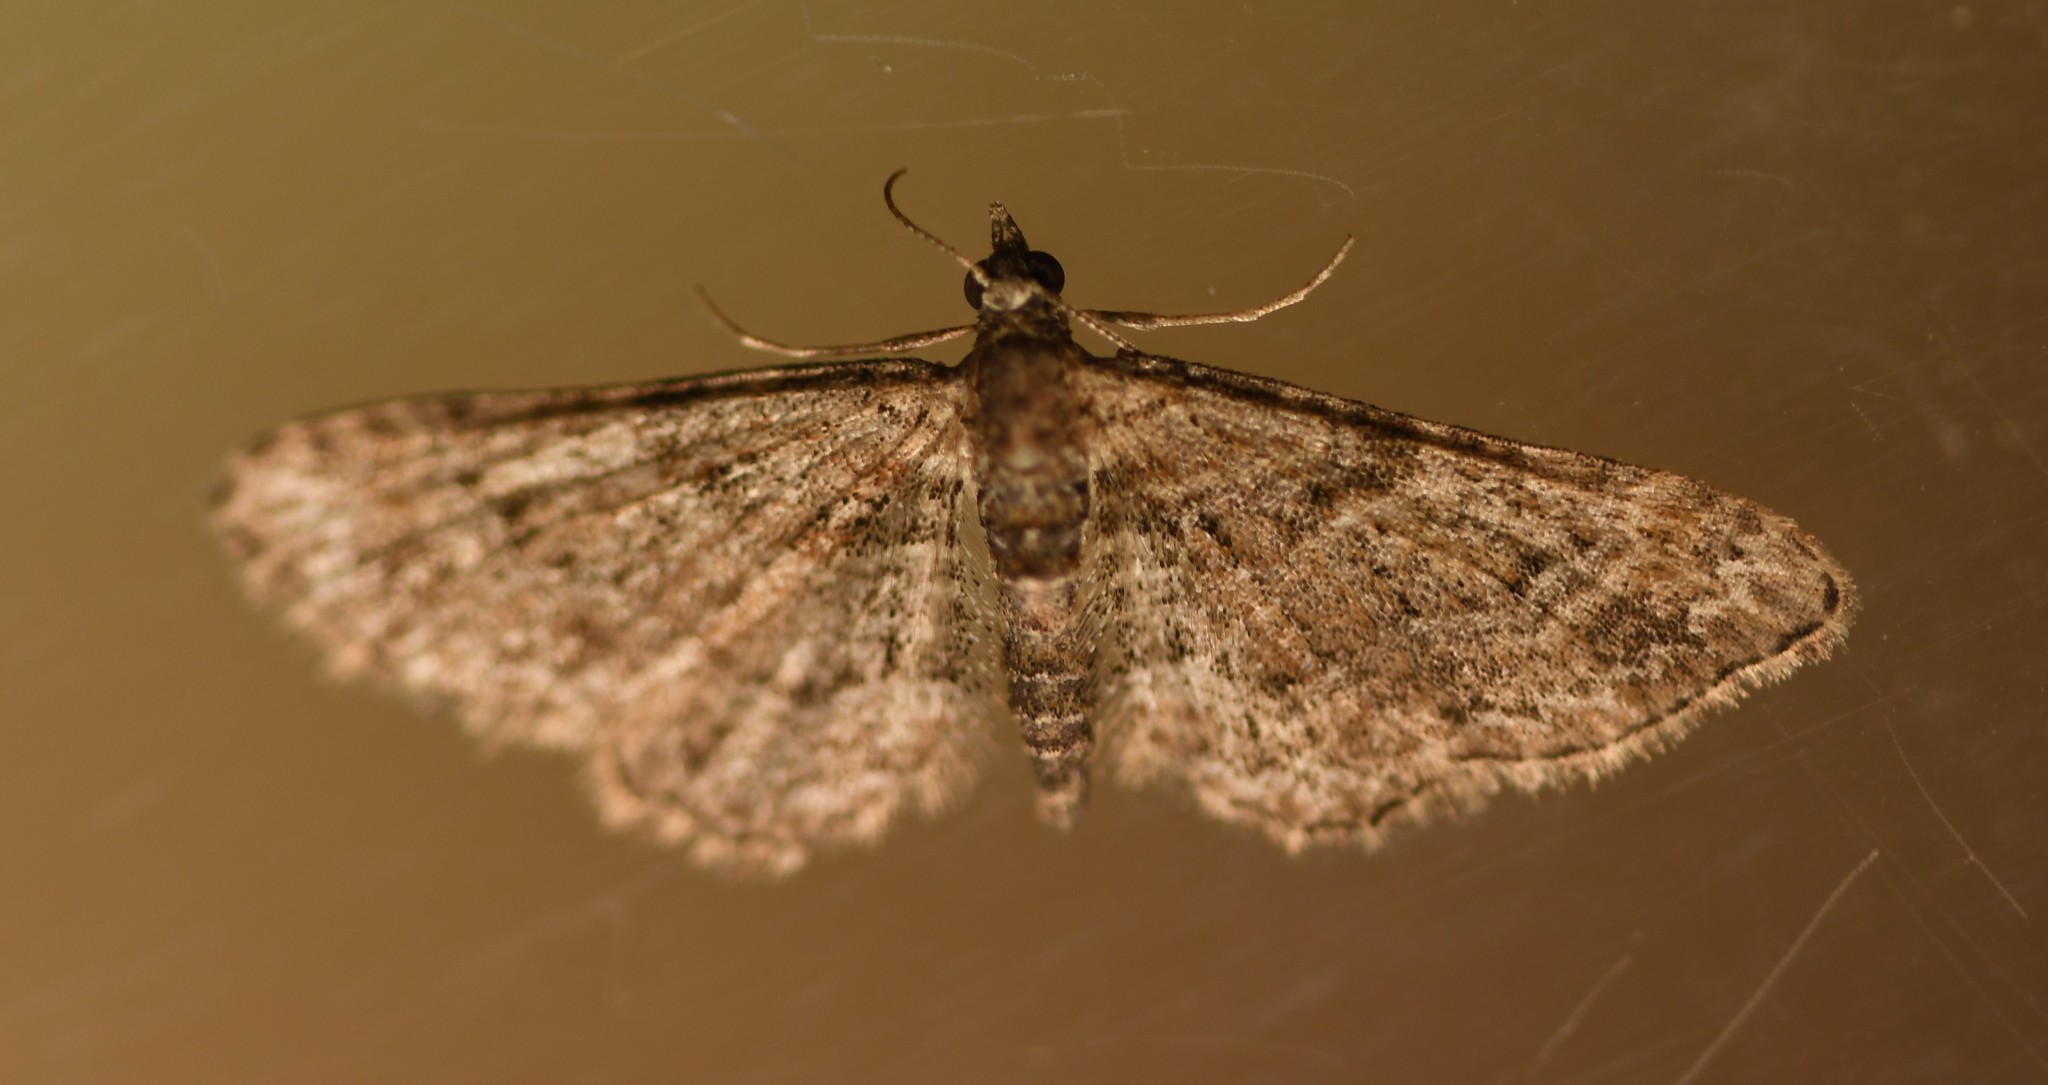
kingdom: Animalia
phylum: Arthropoda
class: Insecta
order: Lepidoptera
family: Geometridae
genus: Gymnoscelis
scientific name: Gymnoscelis rufifasciata
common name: Double-striped pug
